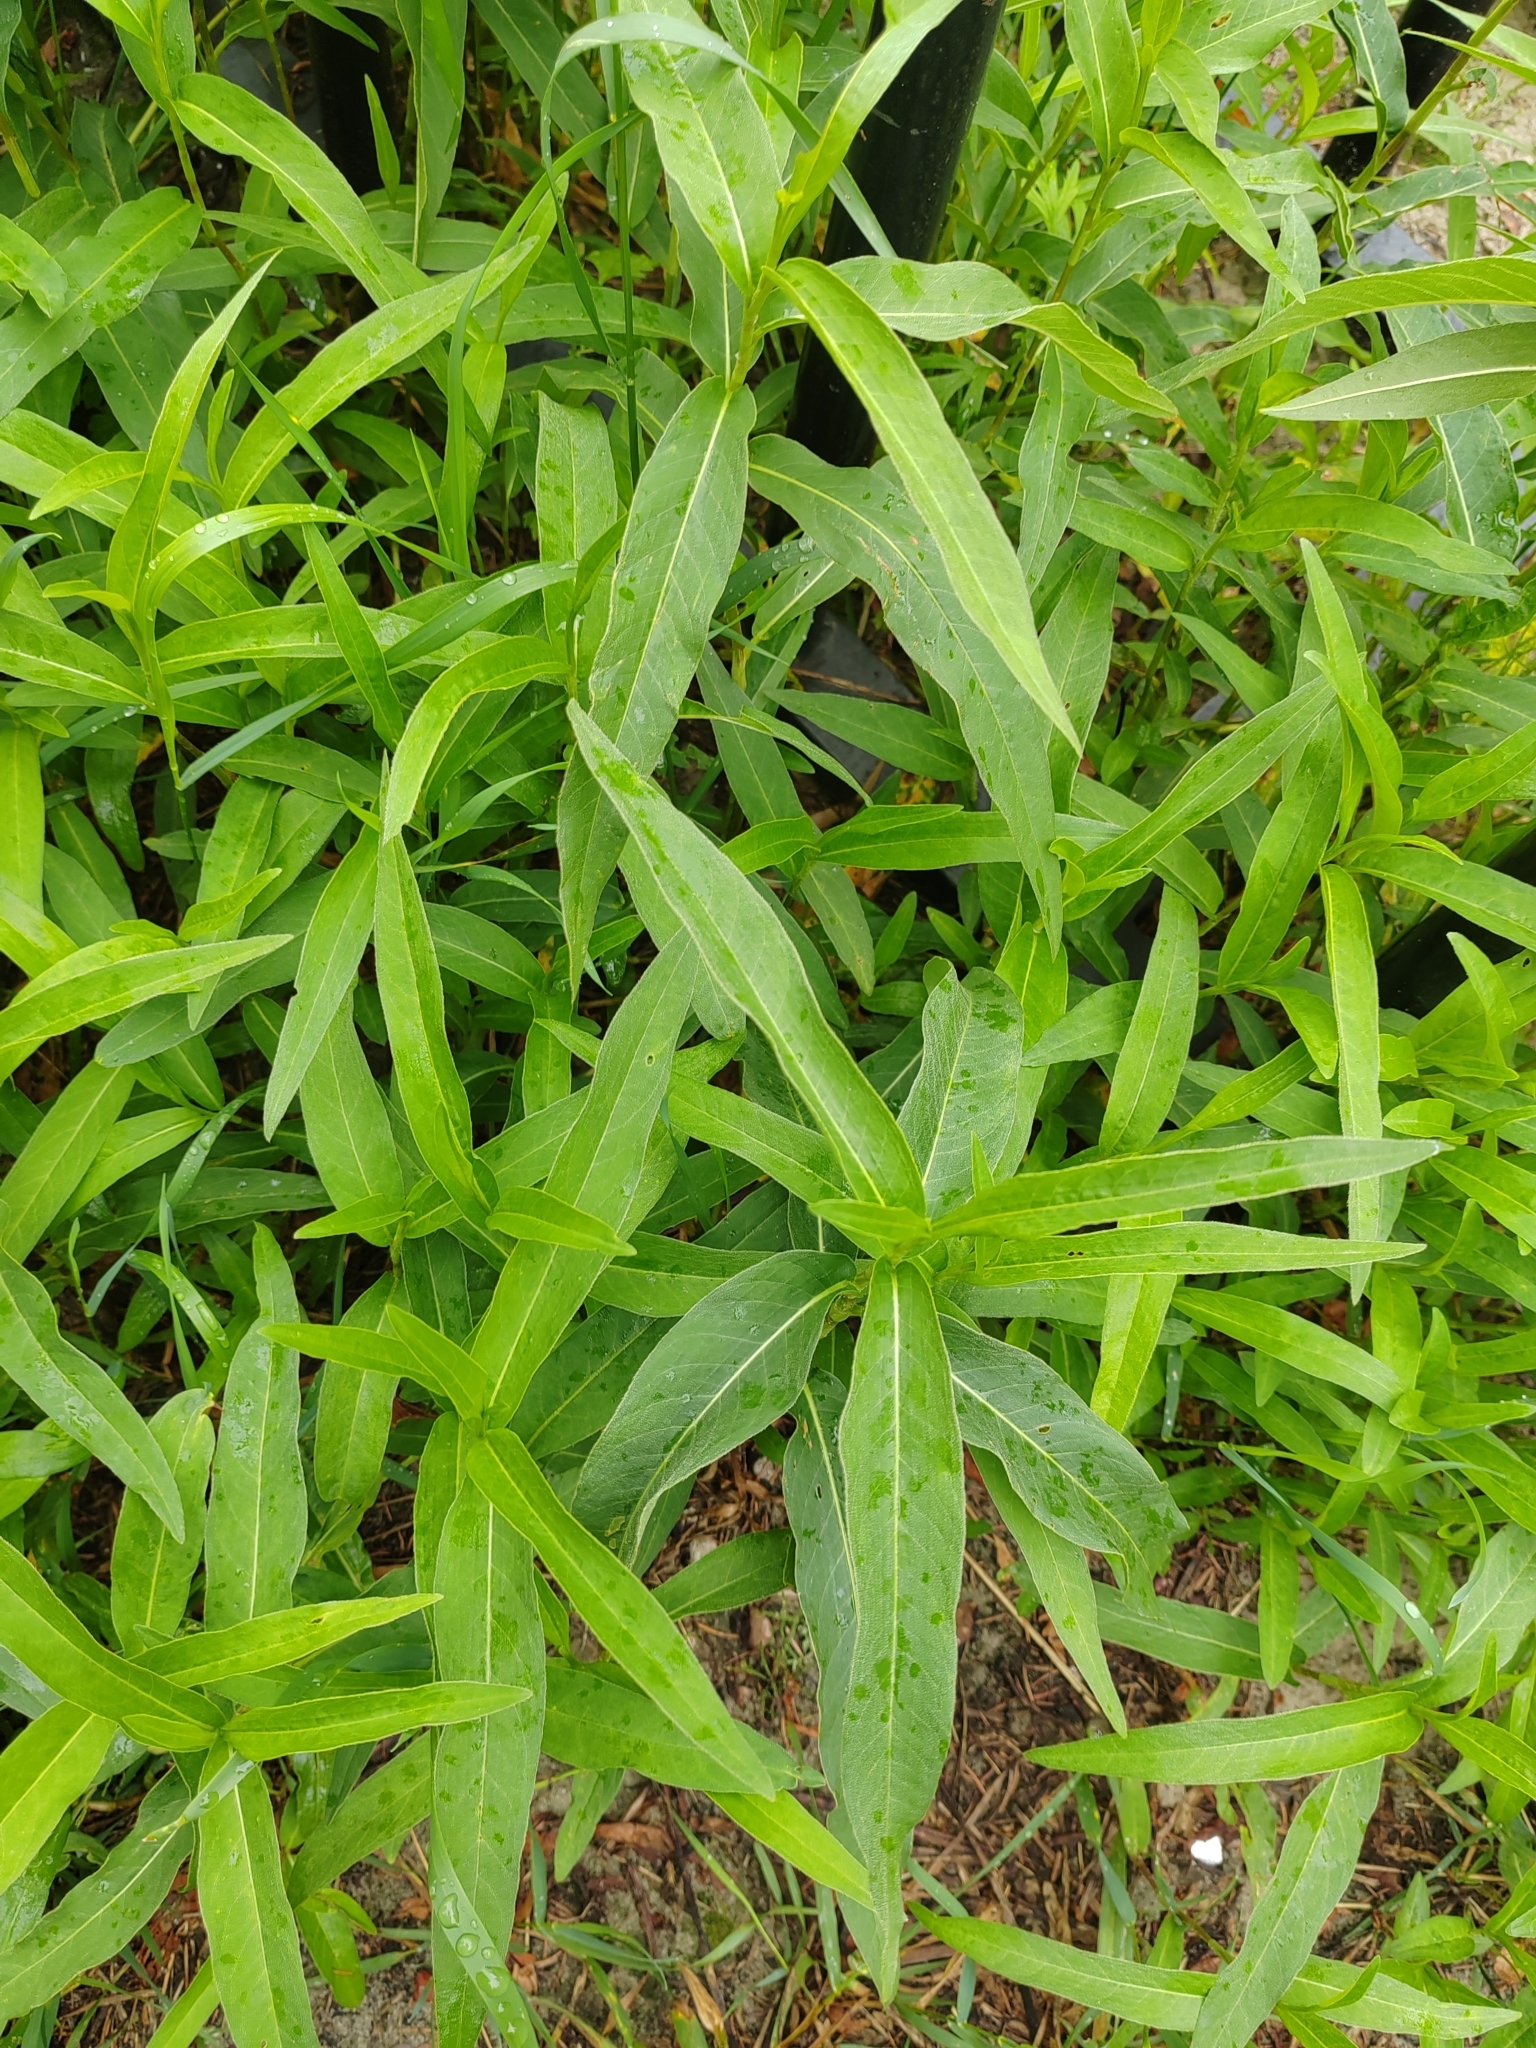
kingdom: Plantae
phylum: Tracheophyta
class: Magnoliopsida
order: Caryophyllales
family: Polygonaceae
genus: Persicaria
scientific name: Persicaria amphibia
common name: Amphibious bistort
